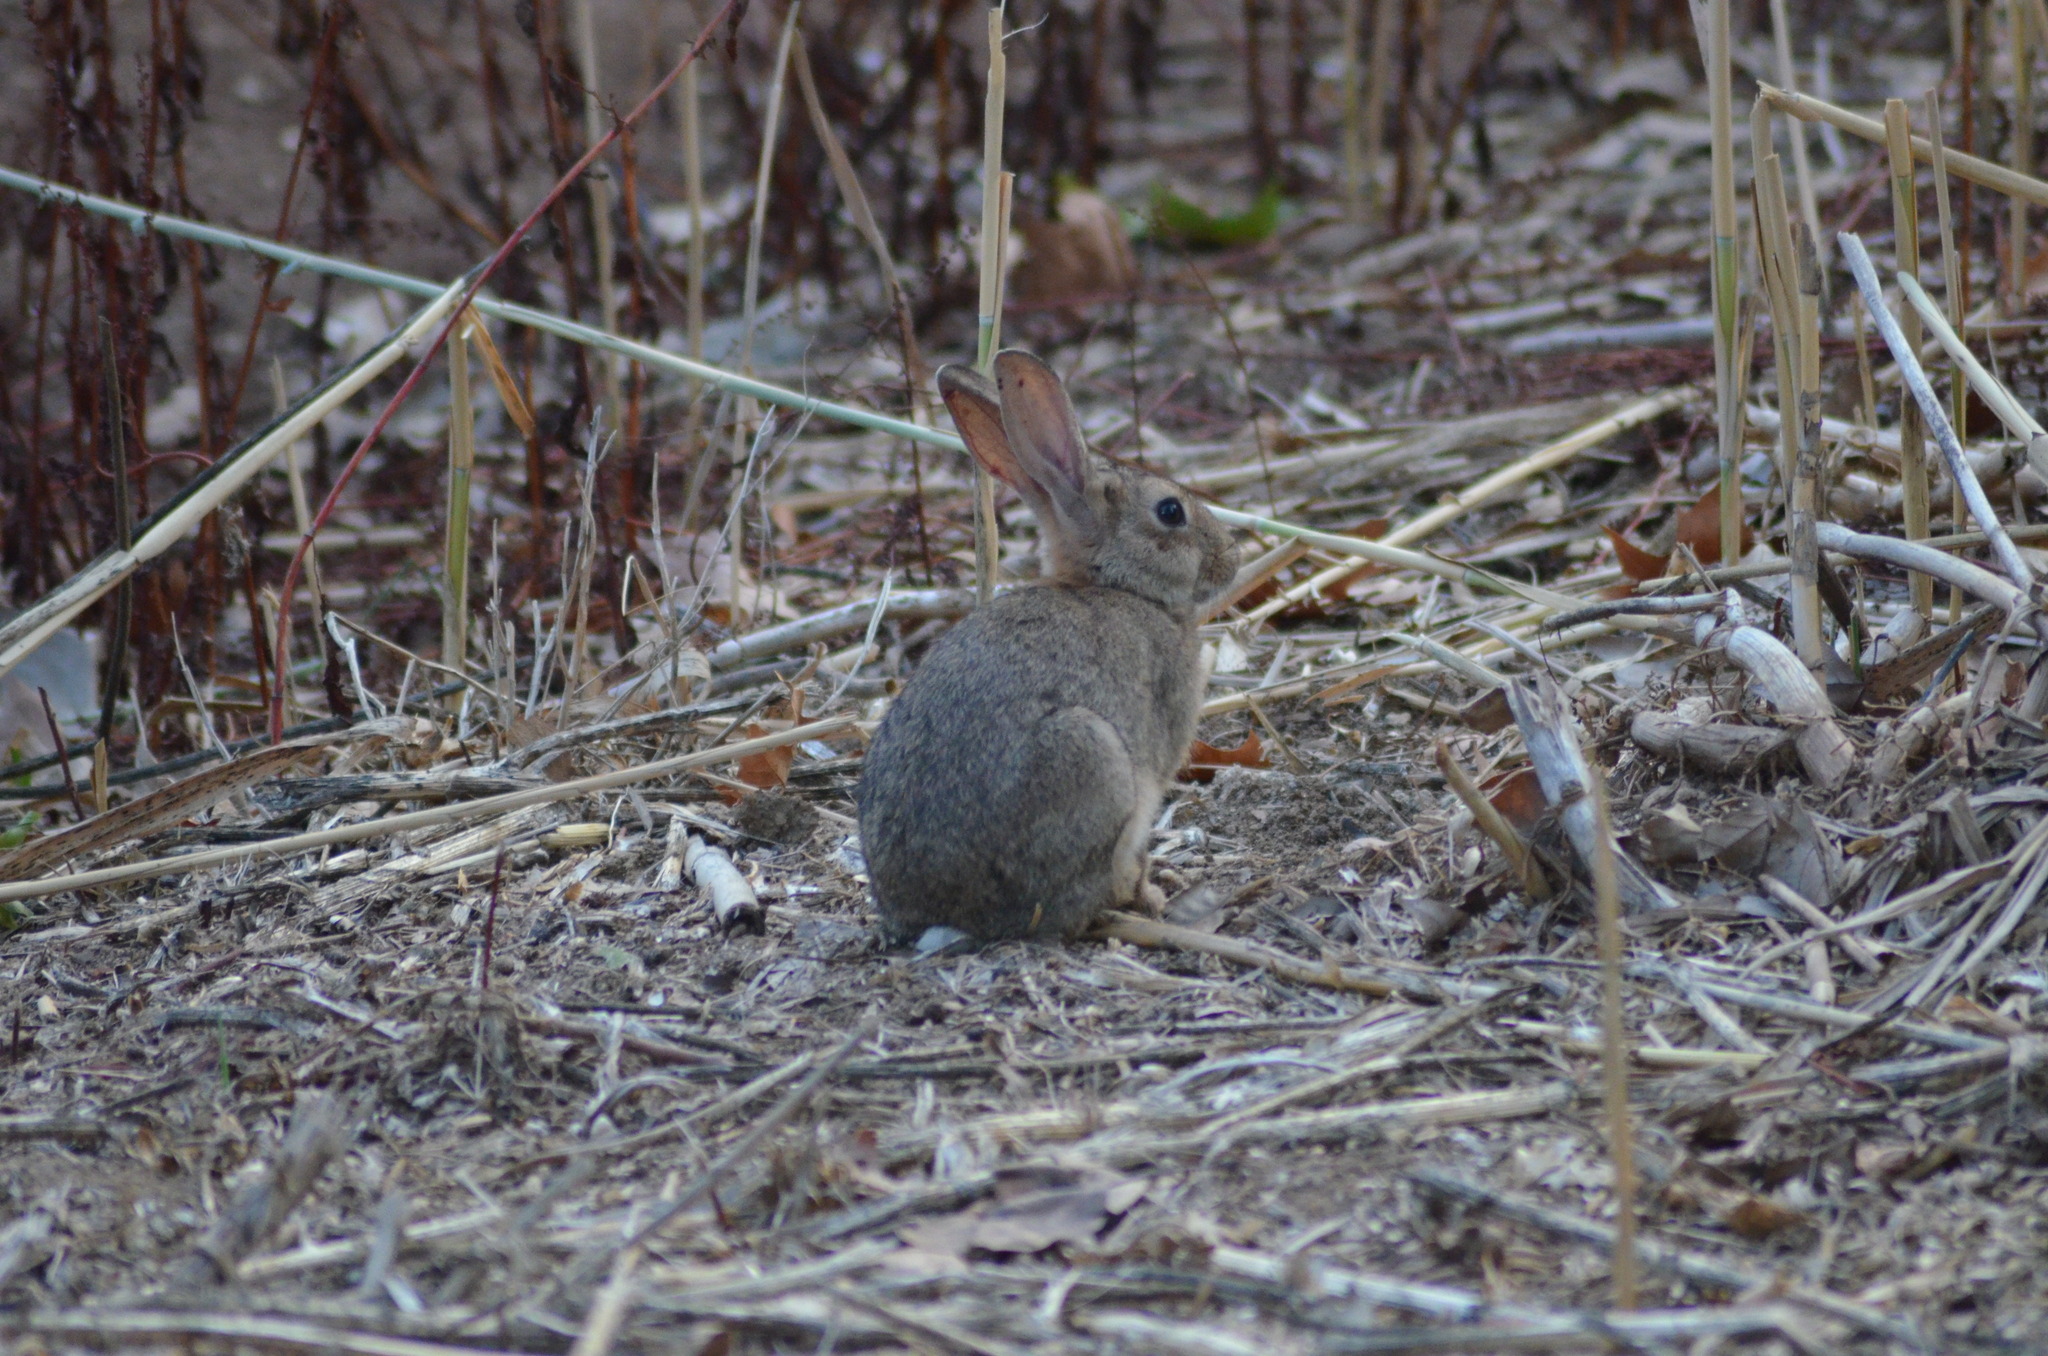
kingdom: Animalia
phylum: Chordata
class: Mammalia
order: Lagomorpha
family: Leporidae
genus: Oryctolagus
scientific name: Oryctolagus cuniculus
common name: European rabbit
